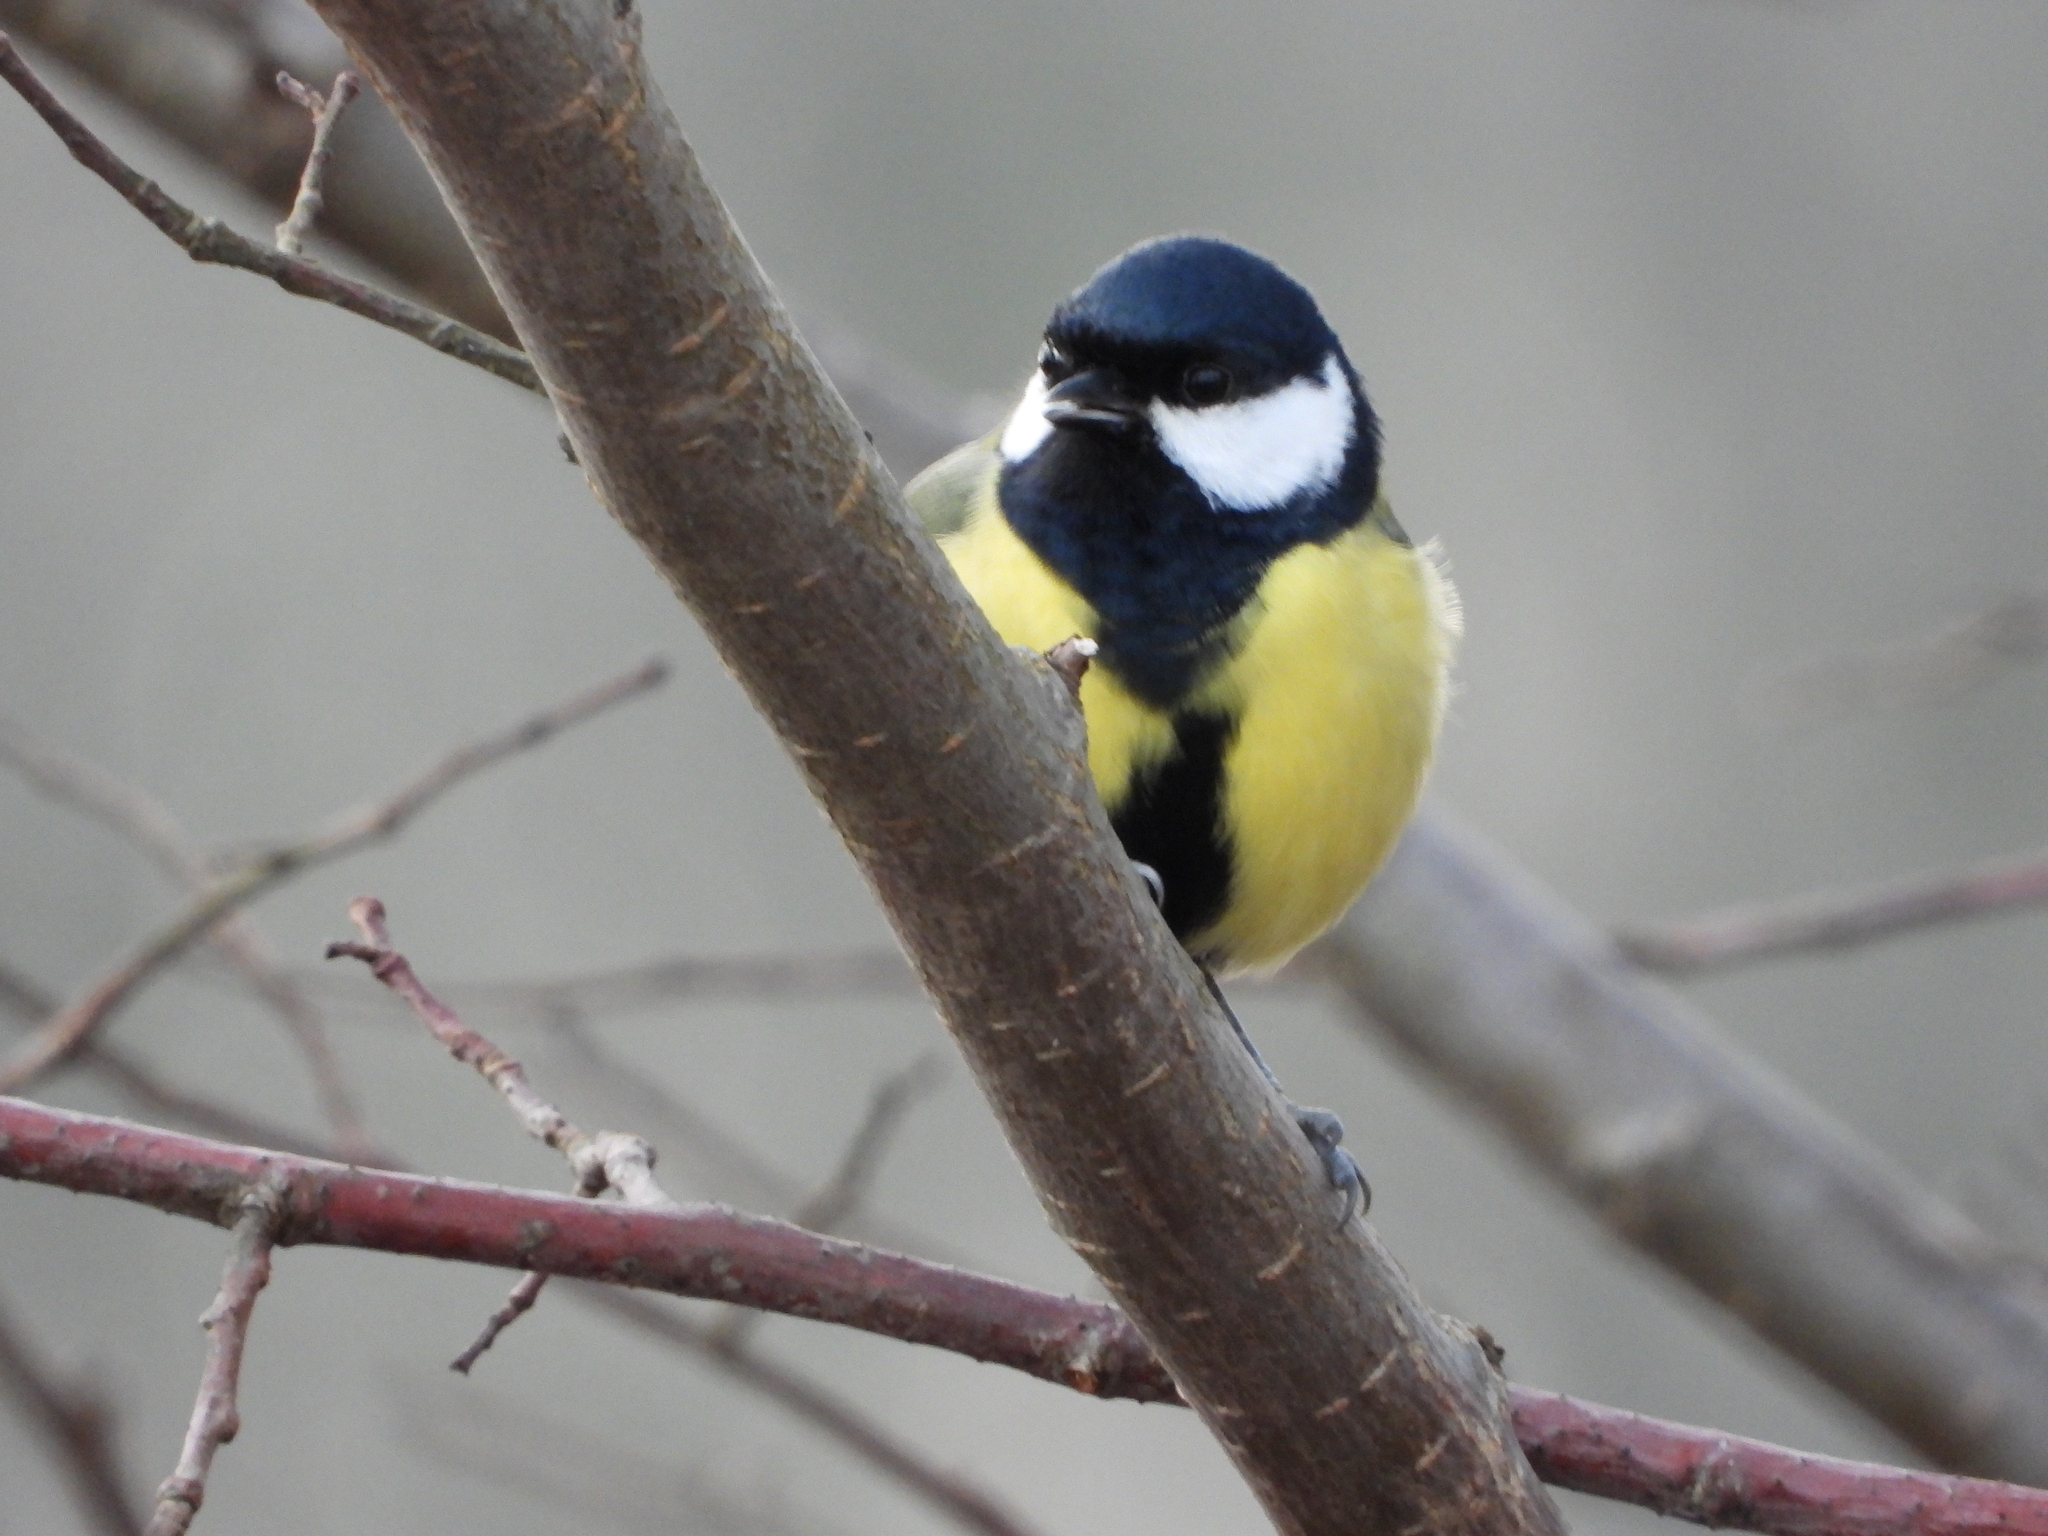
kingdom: Animalia
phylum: Chordata
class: Aves
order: Passeriformes
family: Paridae
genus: Parus
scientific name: Parus major
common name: Great tit
